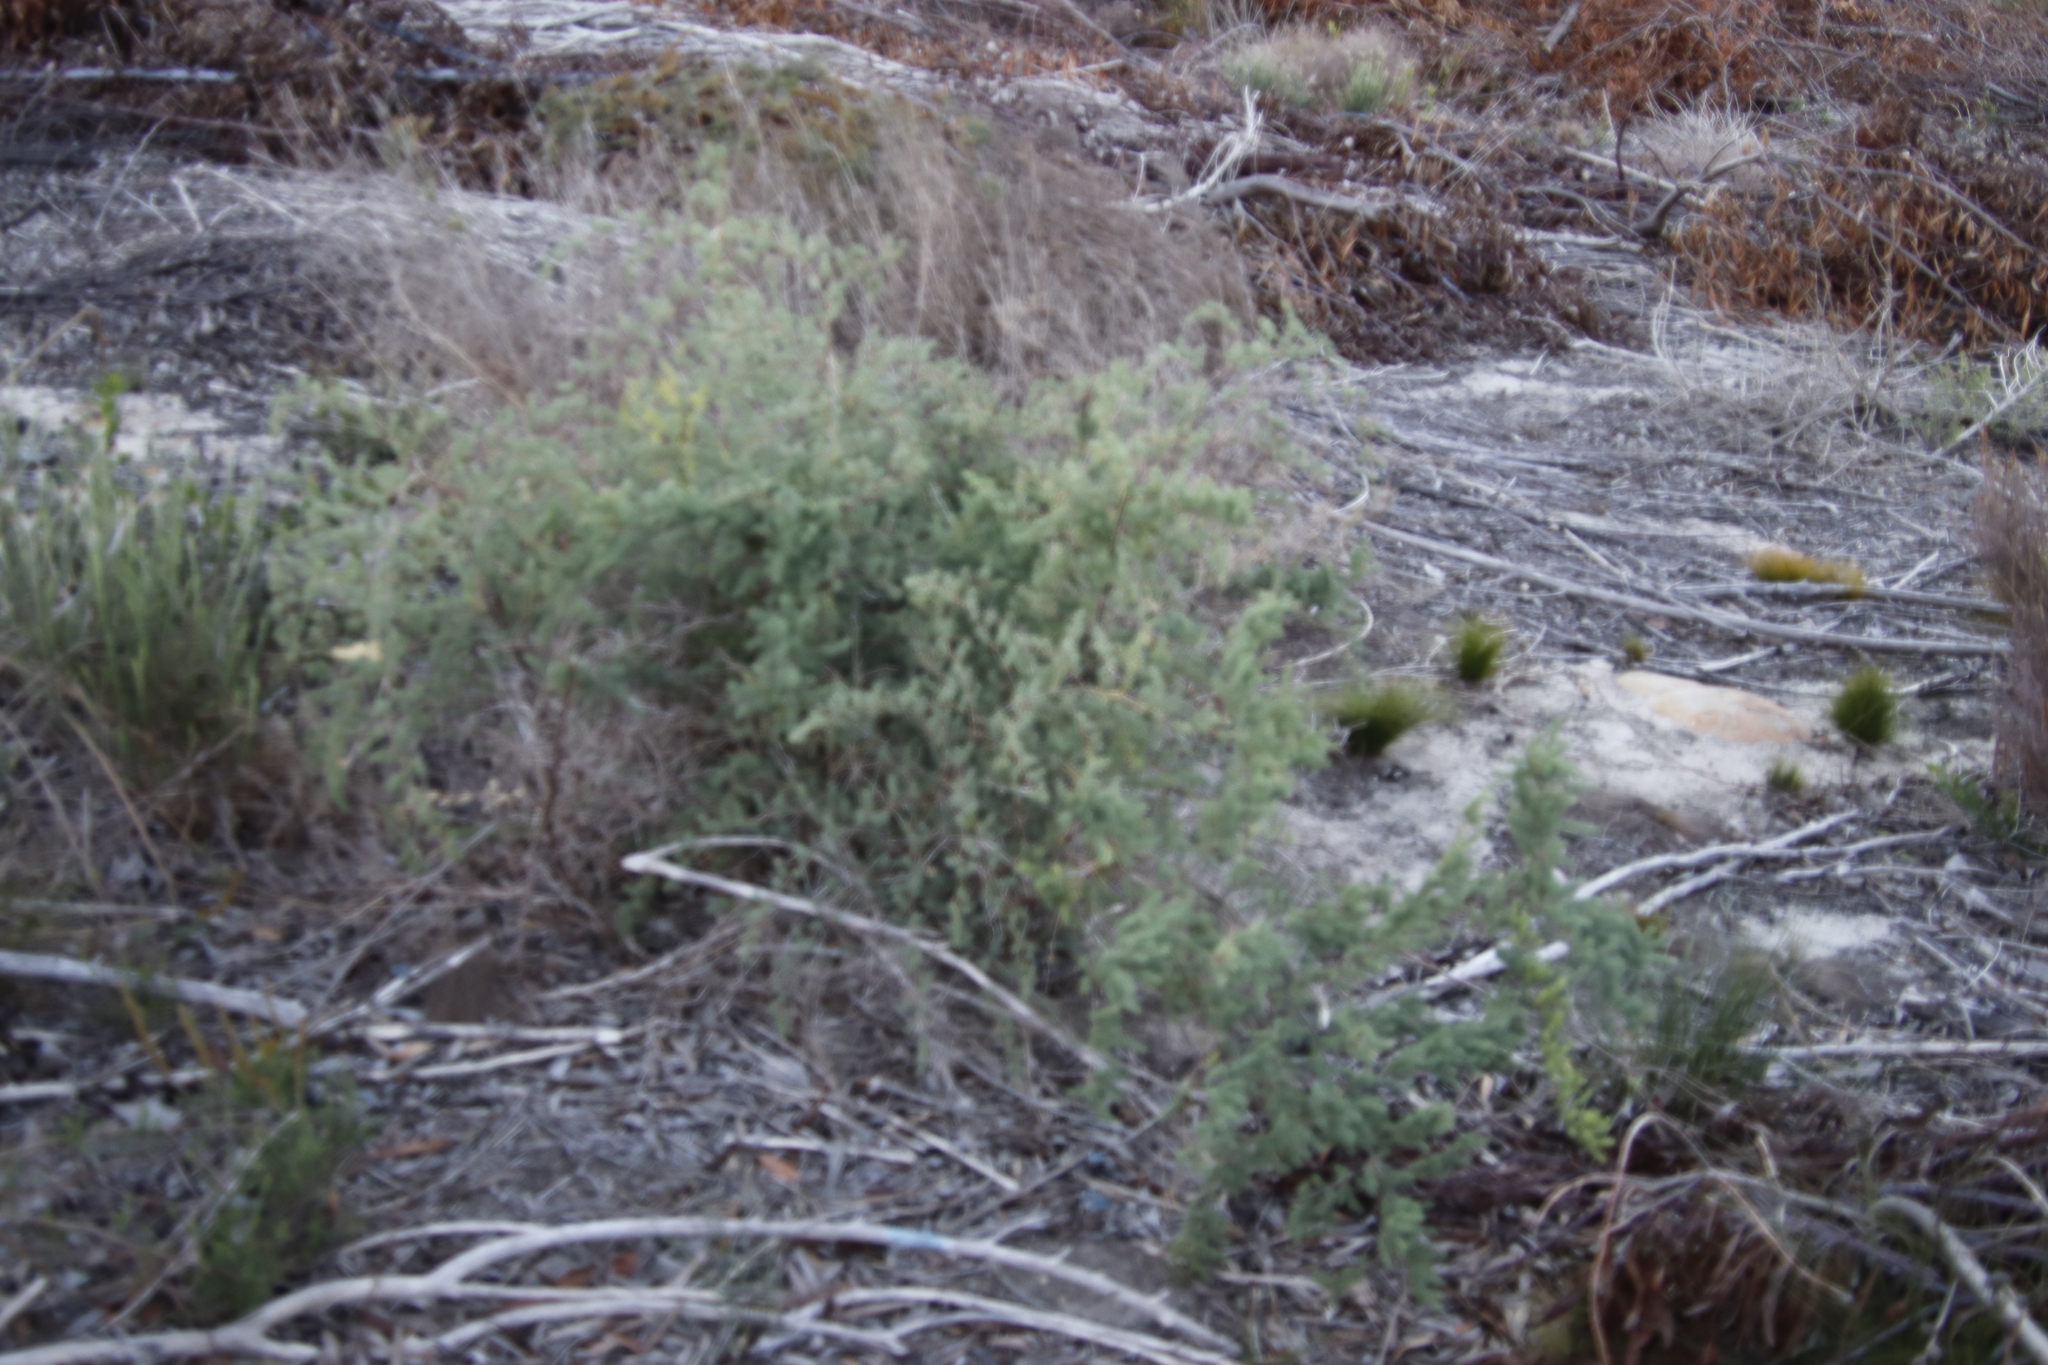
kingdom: Plantae
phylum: Tracheophyta
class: Liliopsida
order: Asparagales
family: Asparagaceae
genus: Asparagus
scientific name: Asparagus rubicundus
